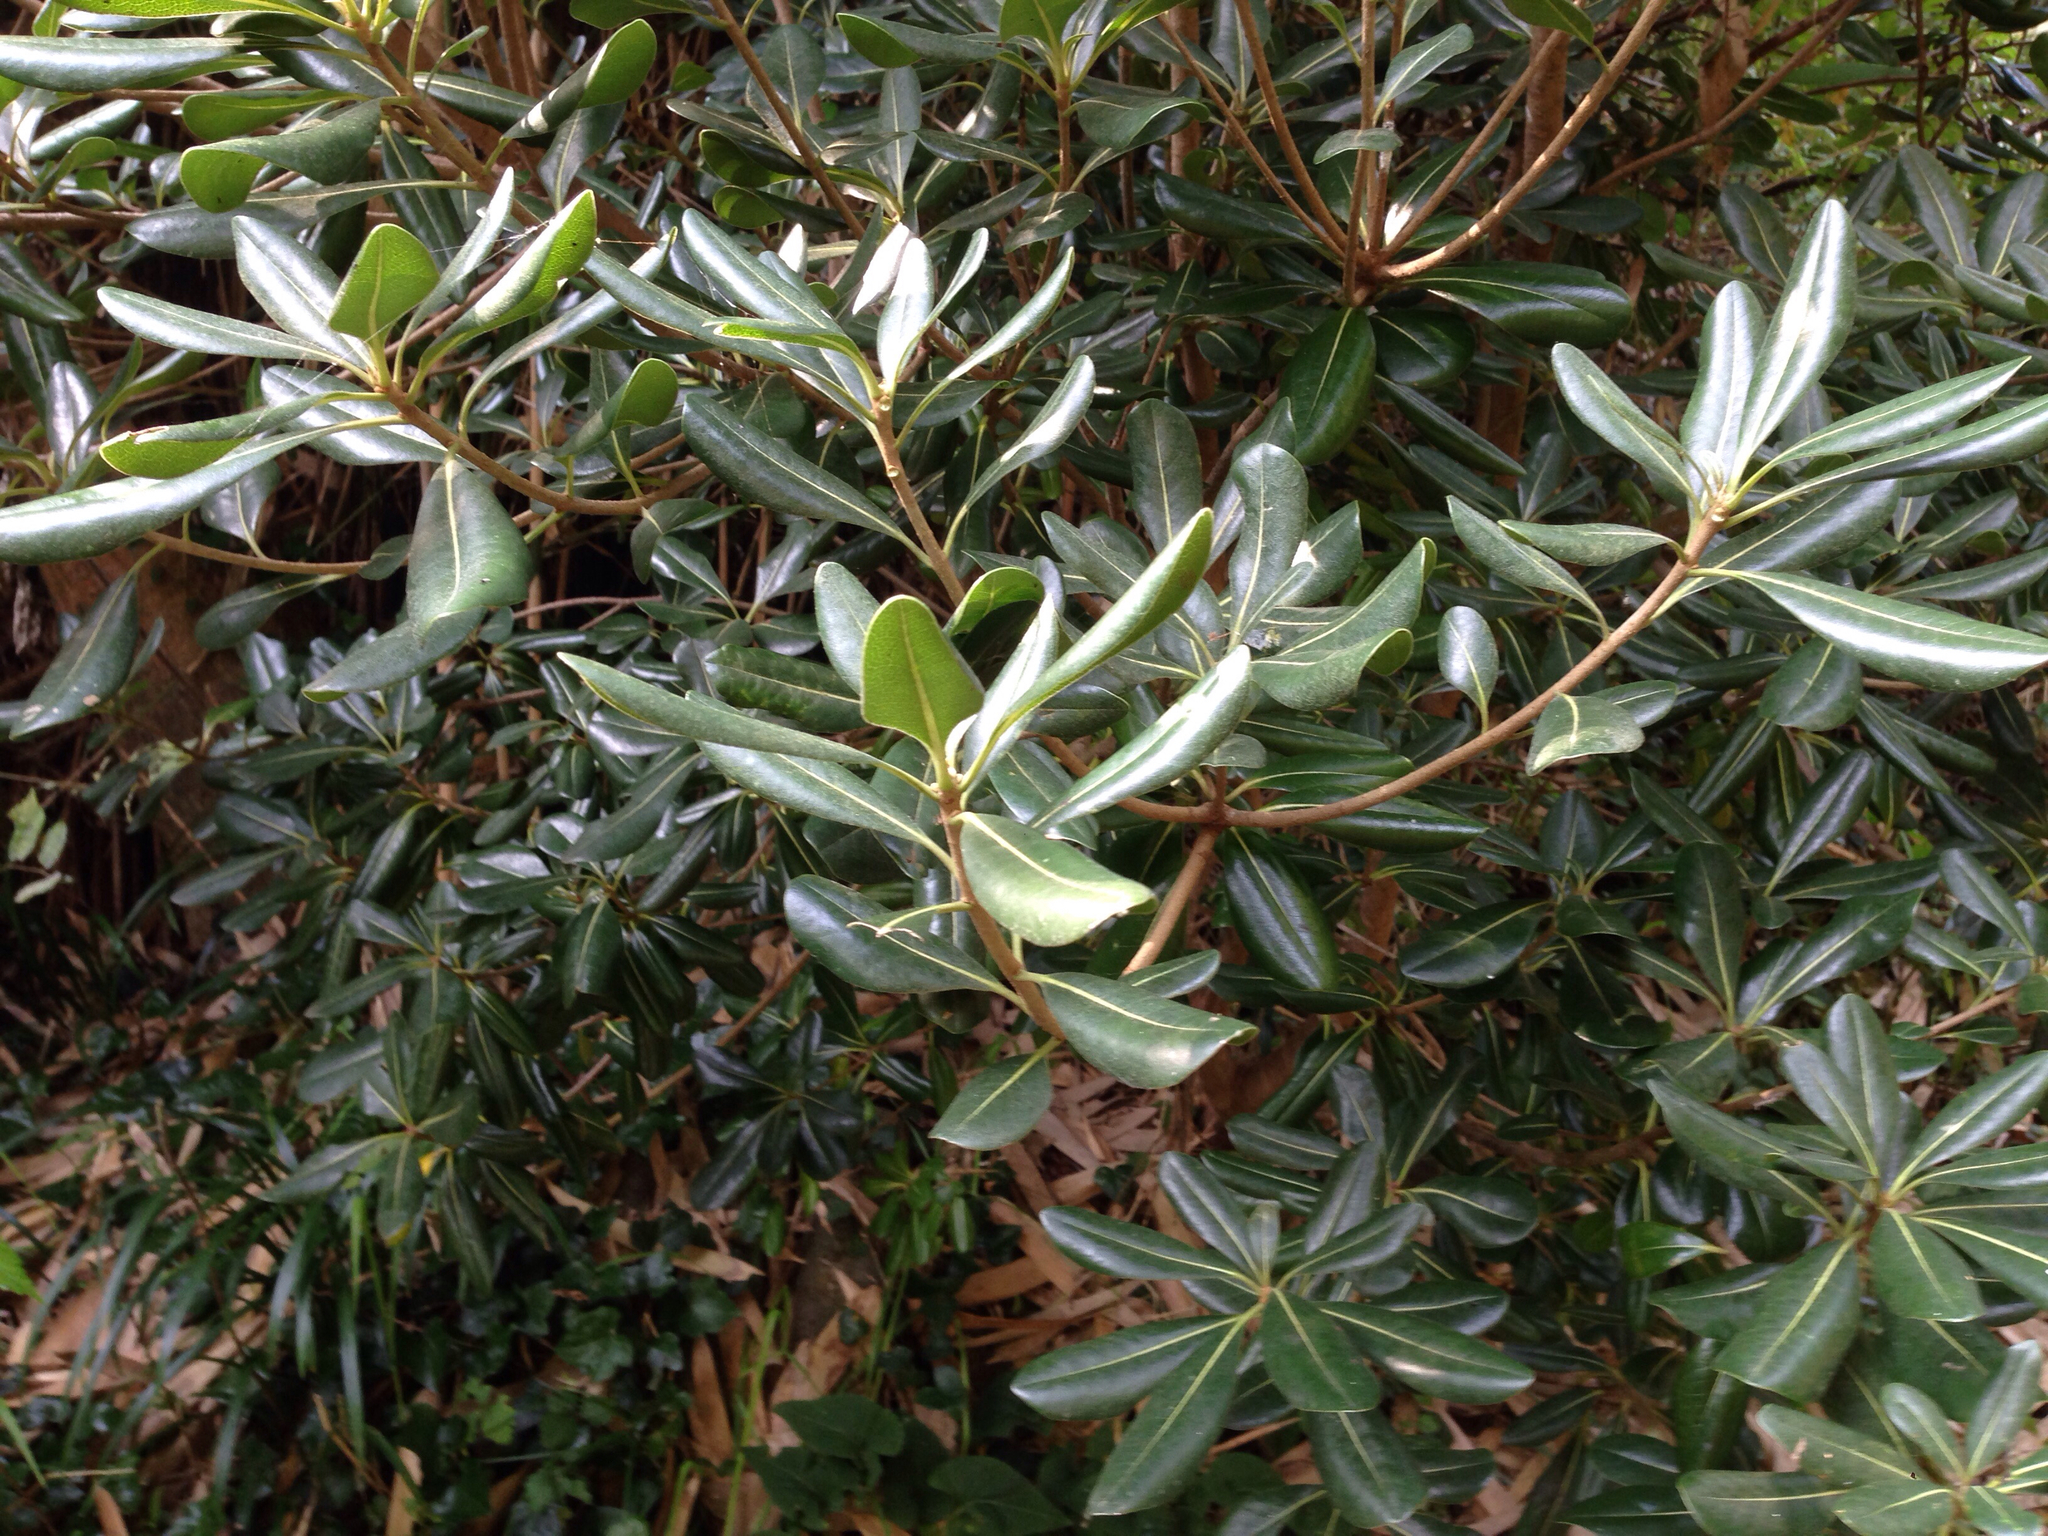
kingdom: Plantae
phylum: Tracheophyta
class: Magnoliopsida
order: Apiales
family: Pittosporaceae
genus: Pittosporum
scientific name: Pittosporum tobira
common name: Japanese cheesewood
